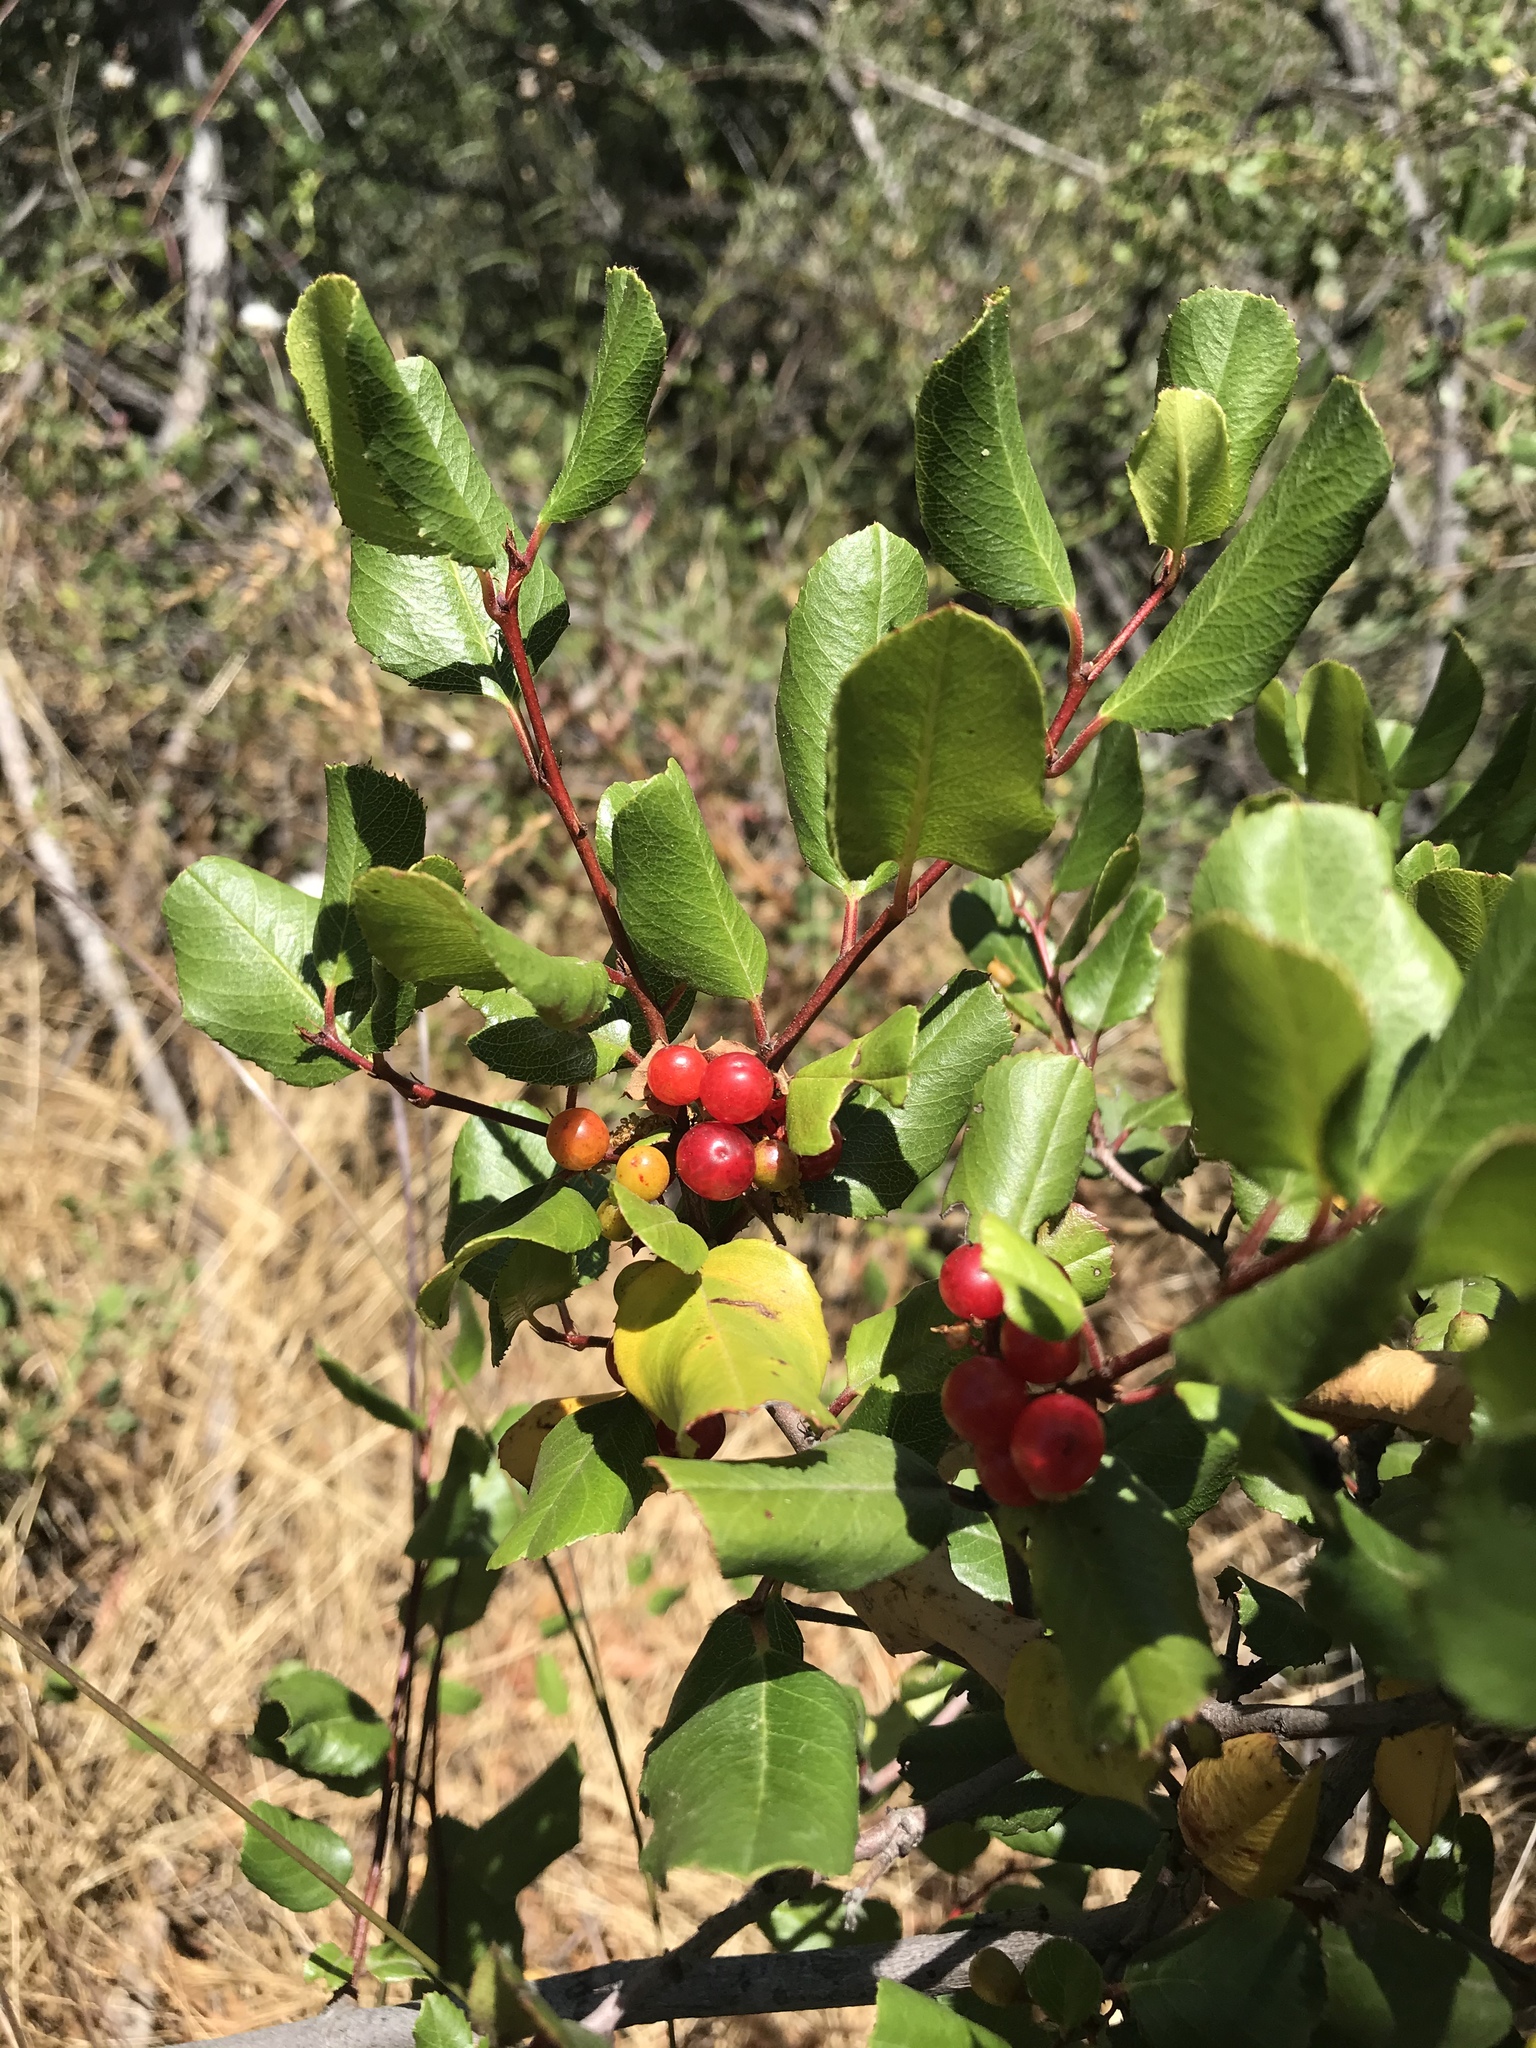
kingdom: Plantae
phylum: Tracheophyta
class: Magnoliopsida
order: Rosales
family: Rhamnaceae
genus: Endotropis
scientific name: Endotropis crocea
